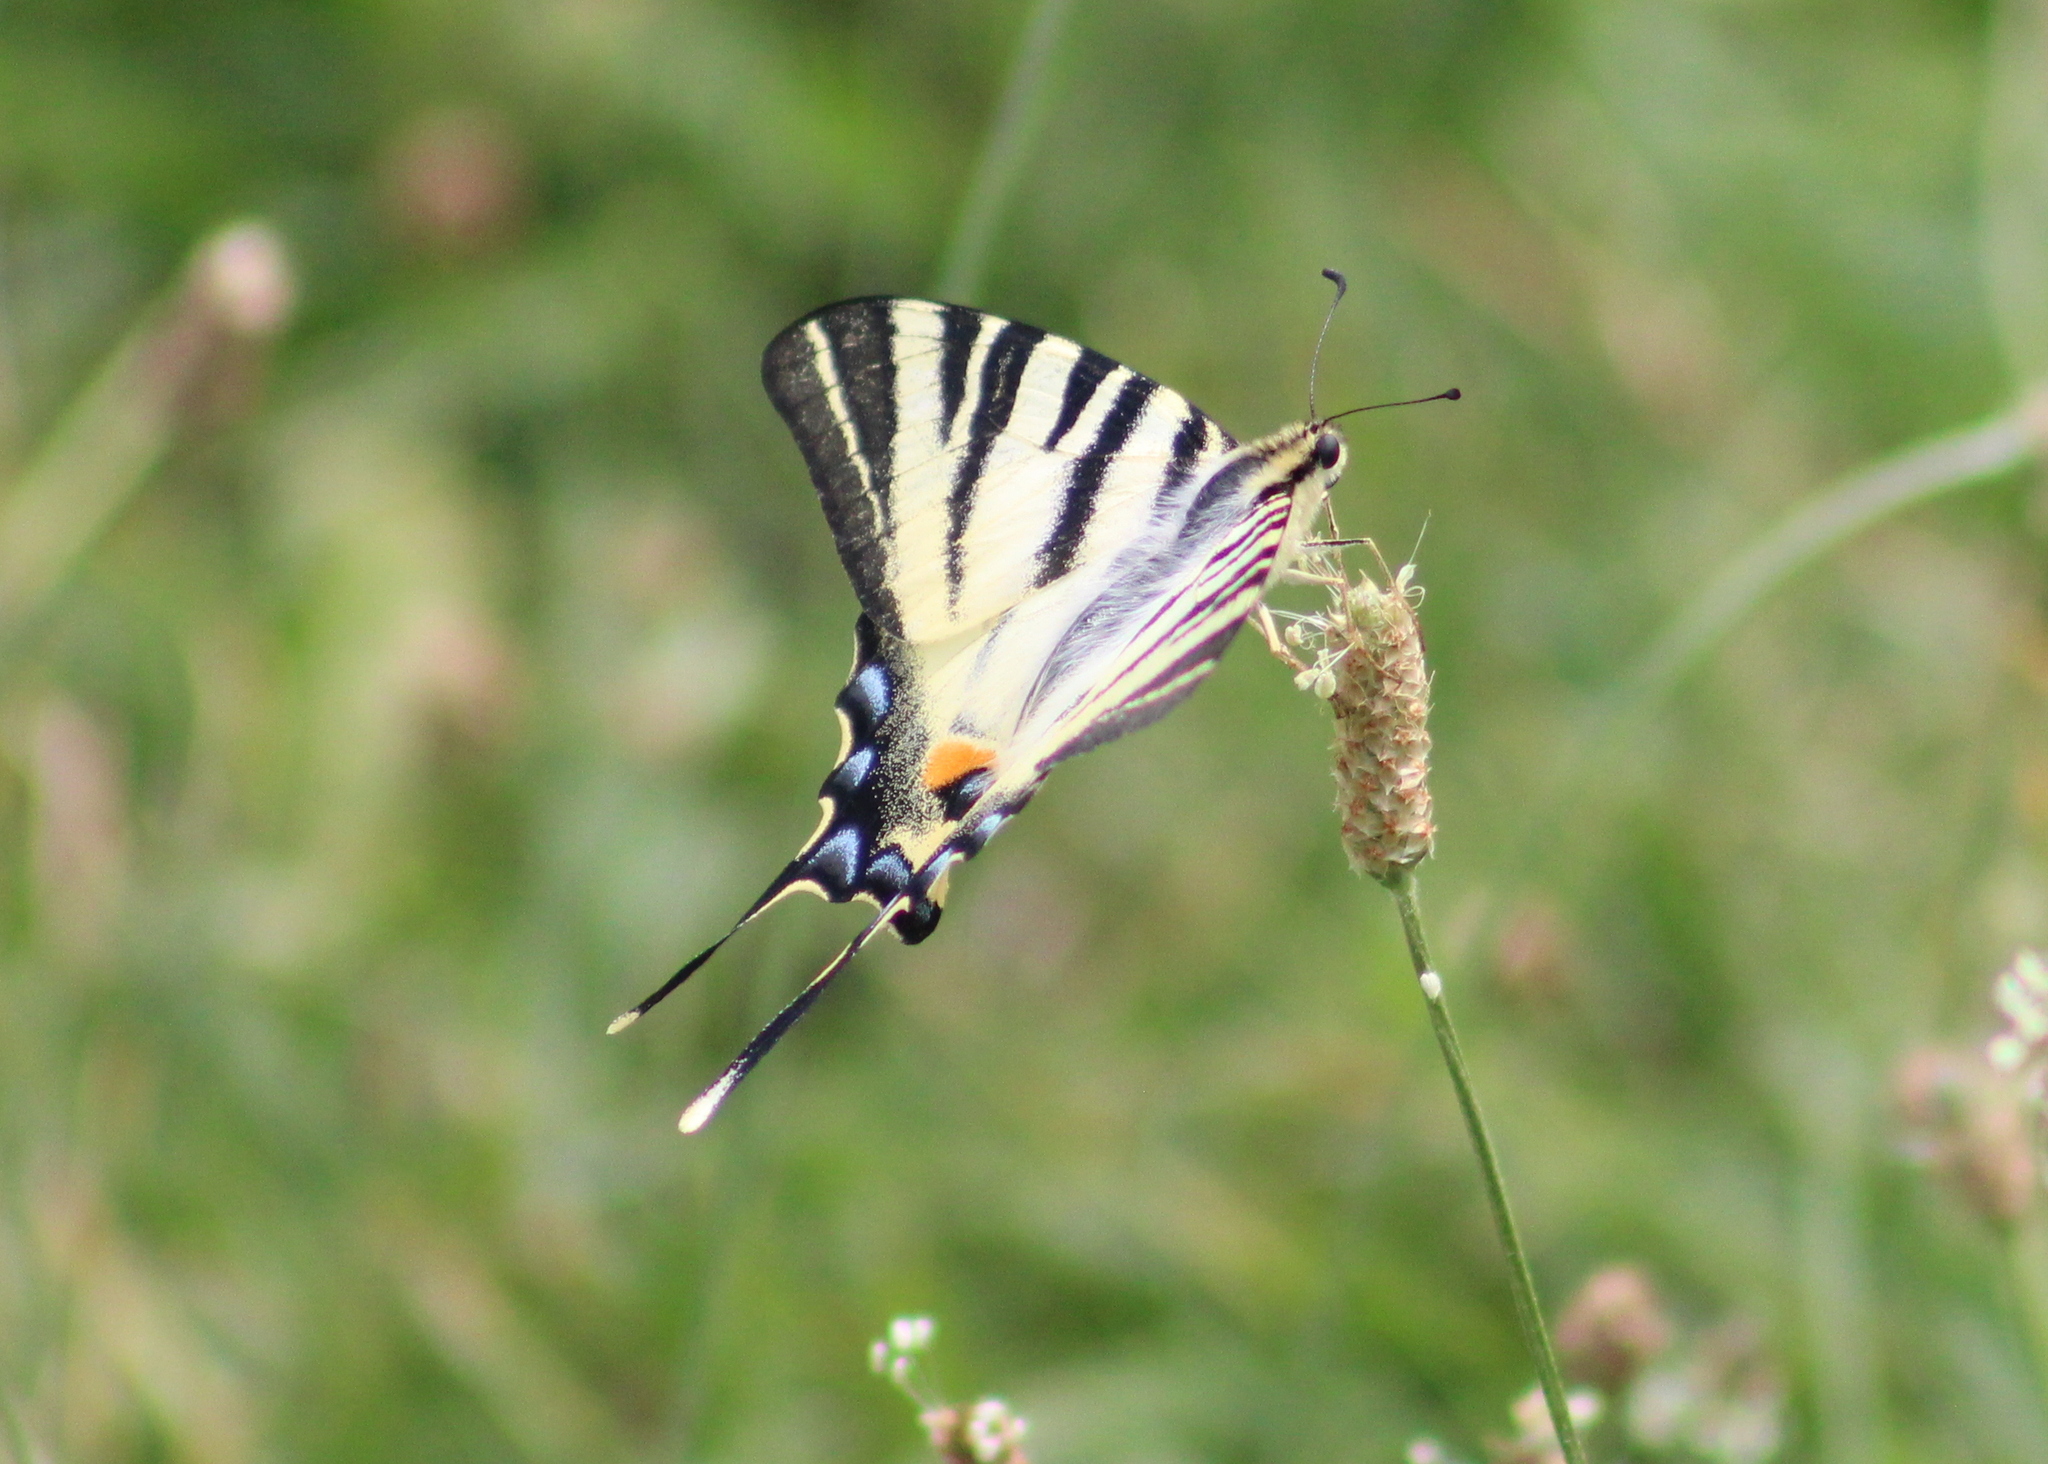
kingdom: Animalia
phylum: Arthropoda
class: Insecta
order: Lepidoptera
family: Papilionidae
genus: Iphiclides
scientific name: Iphiclides podalirius
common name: Scarce swallowtail
